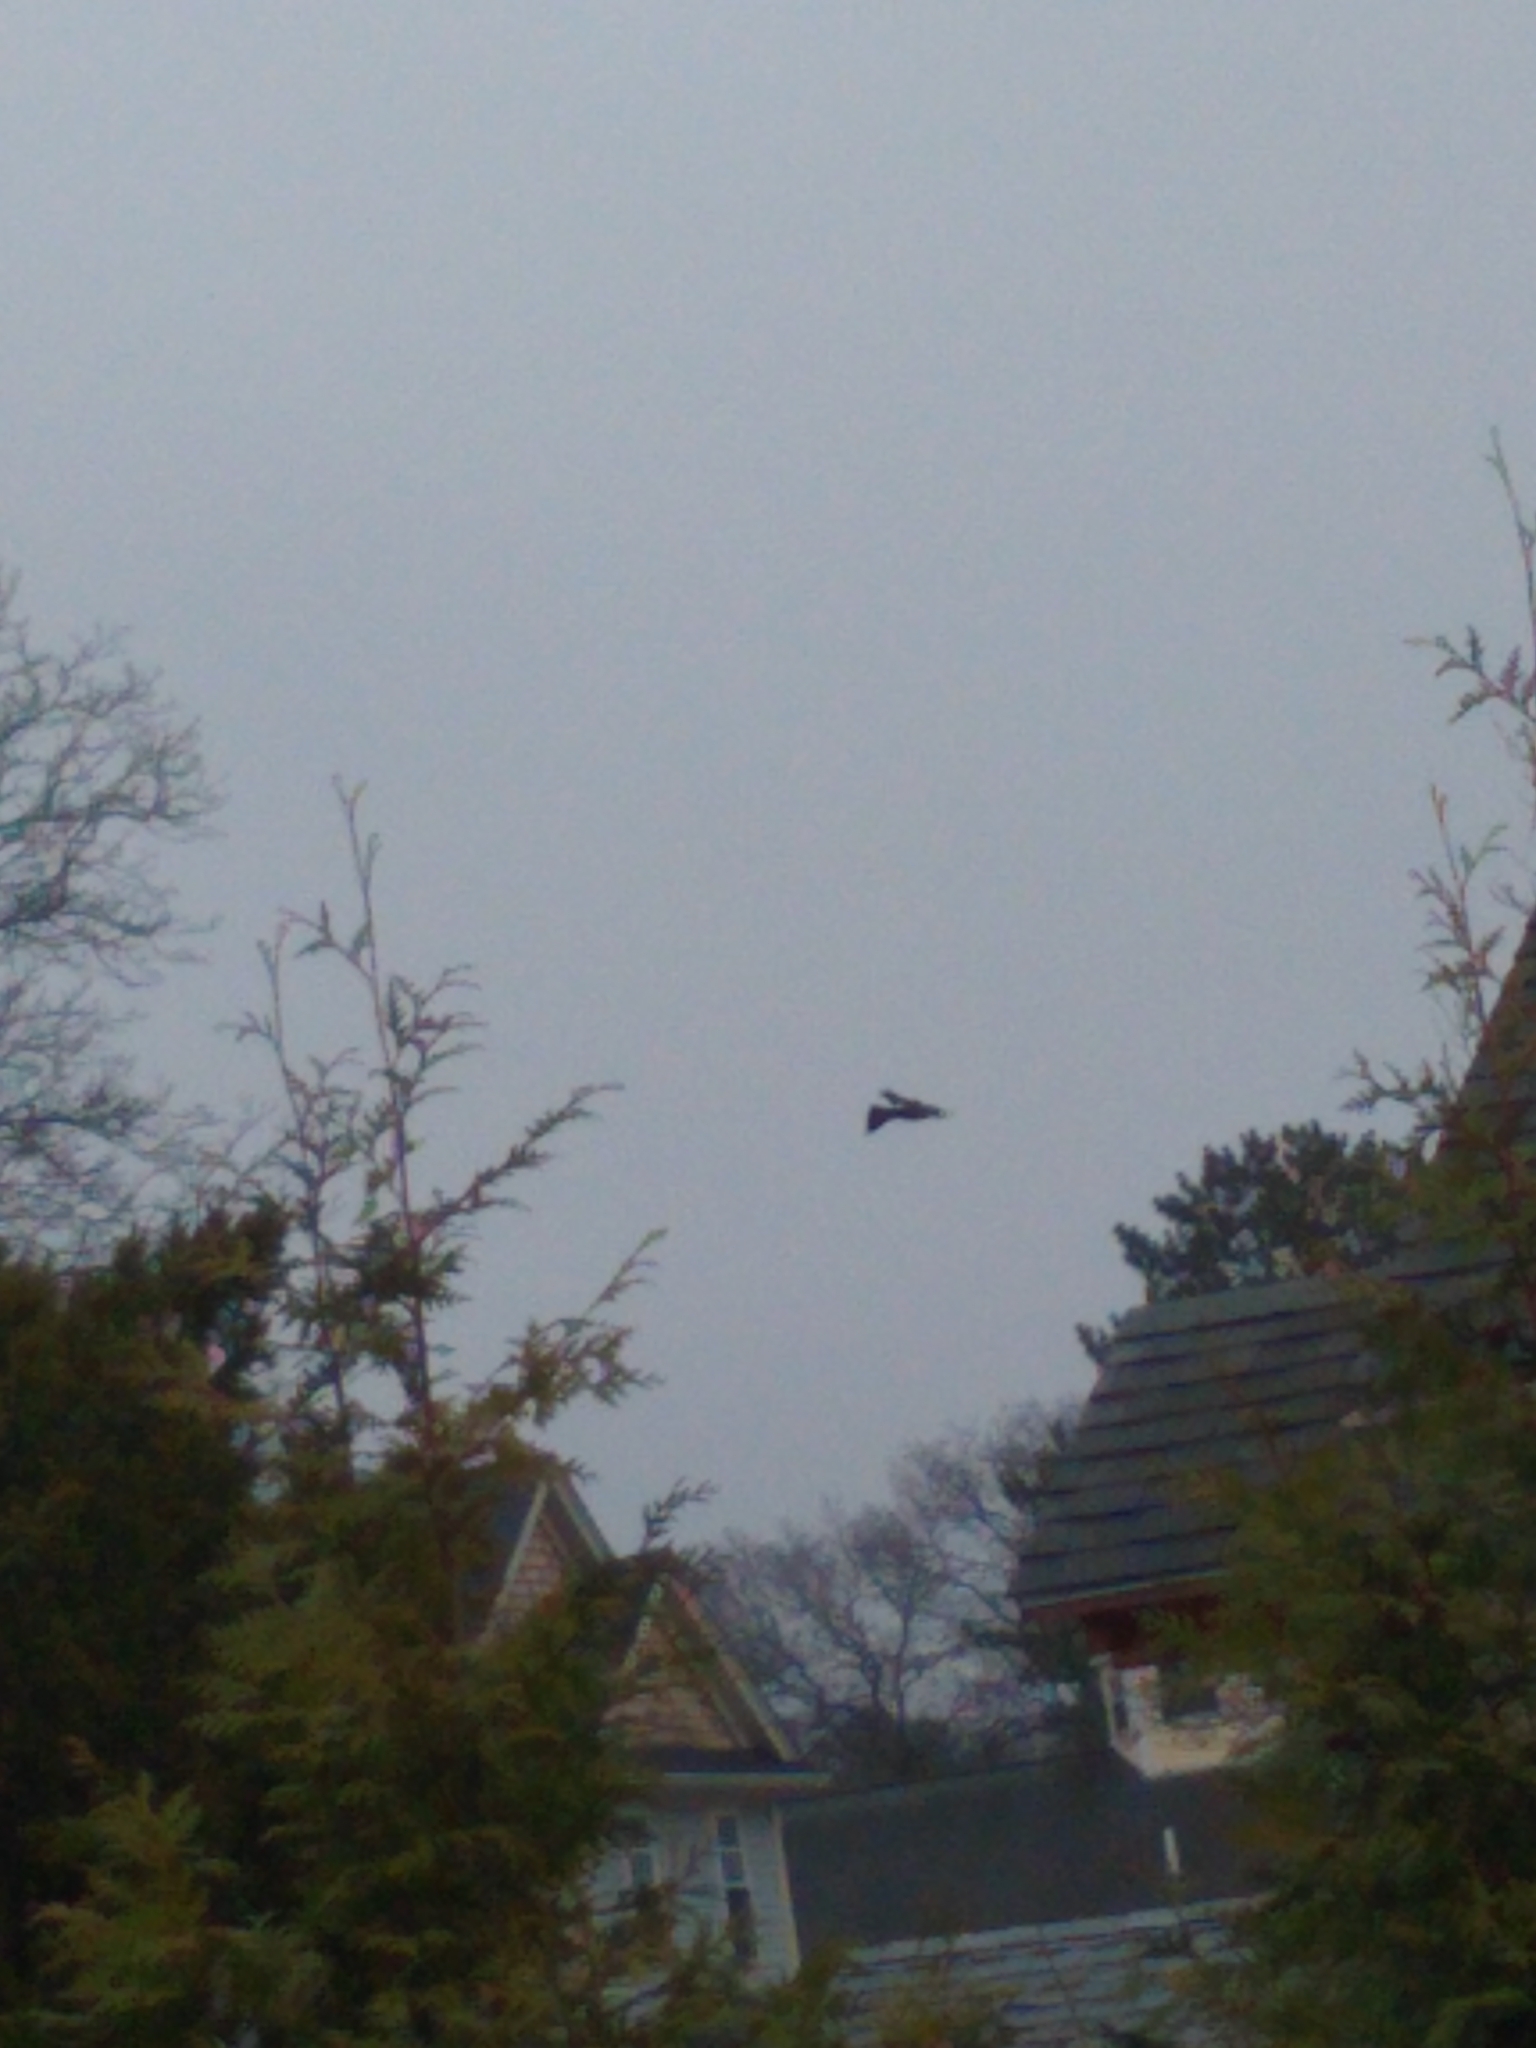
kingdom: Animalia
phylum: Chordata
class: Aves
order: Passeriformes
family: Icteridae
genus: Quiscalus
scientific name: Quiscalus quiscula
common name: Common grackle
